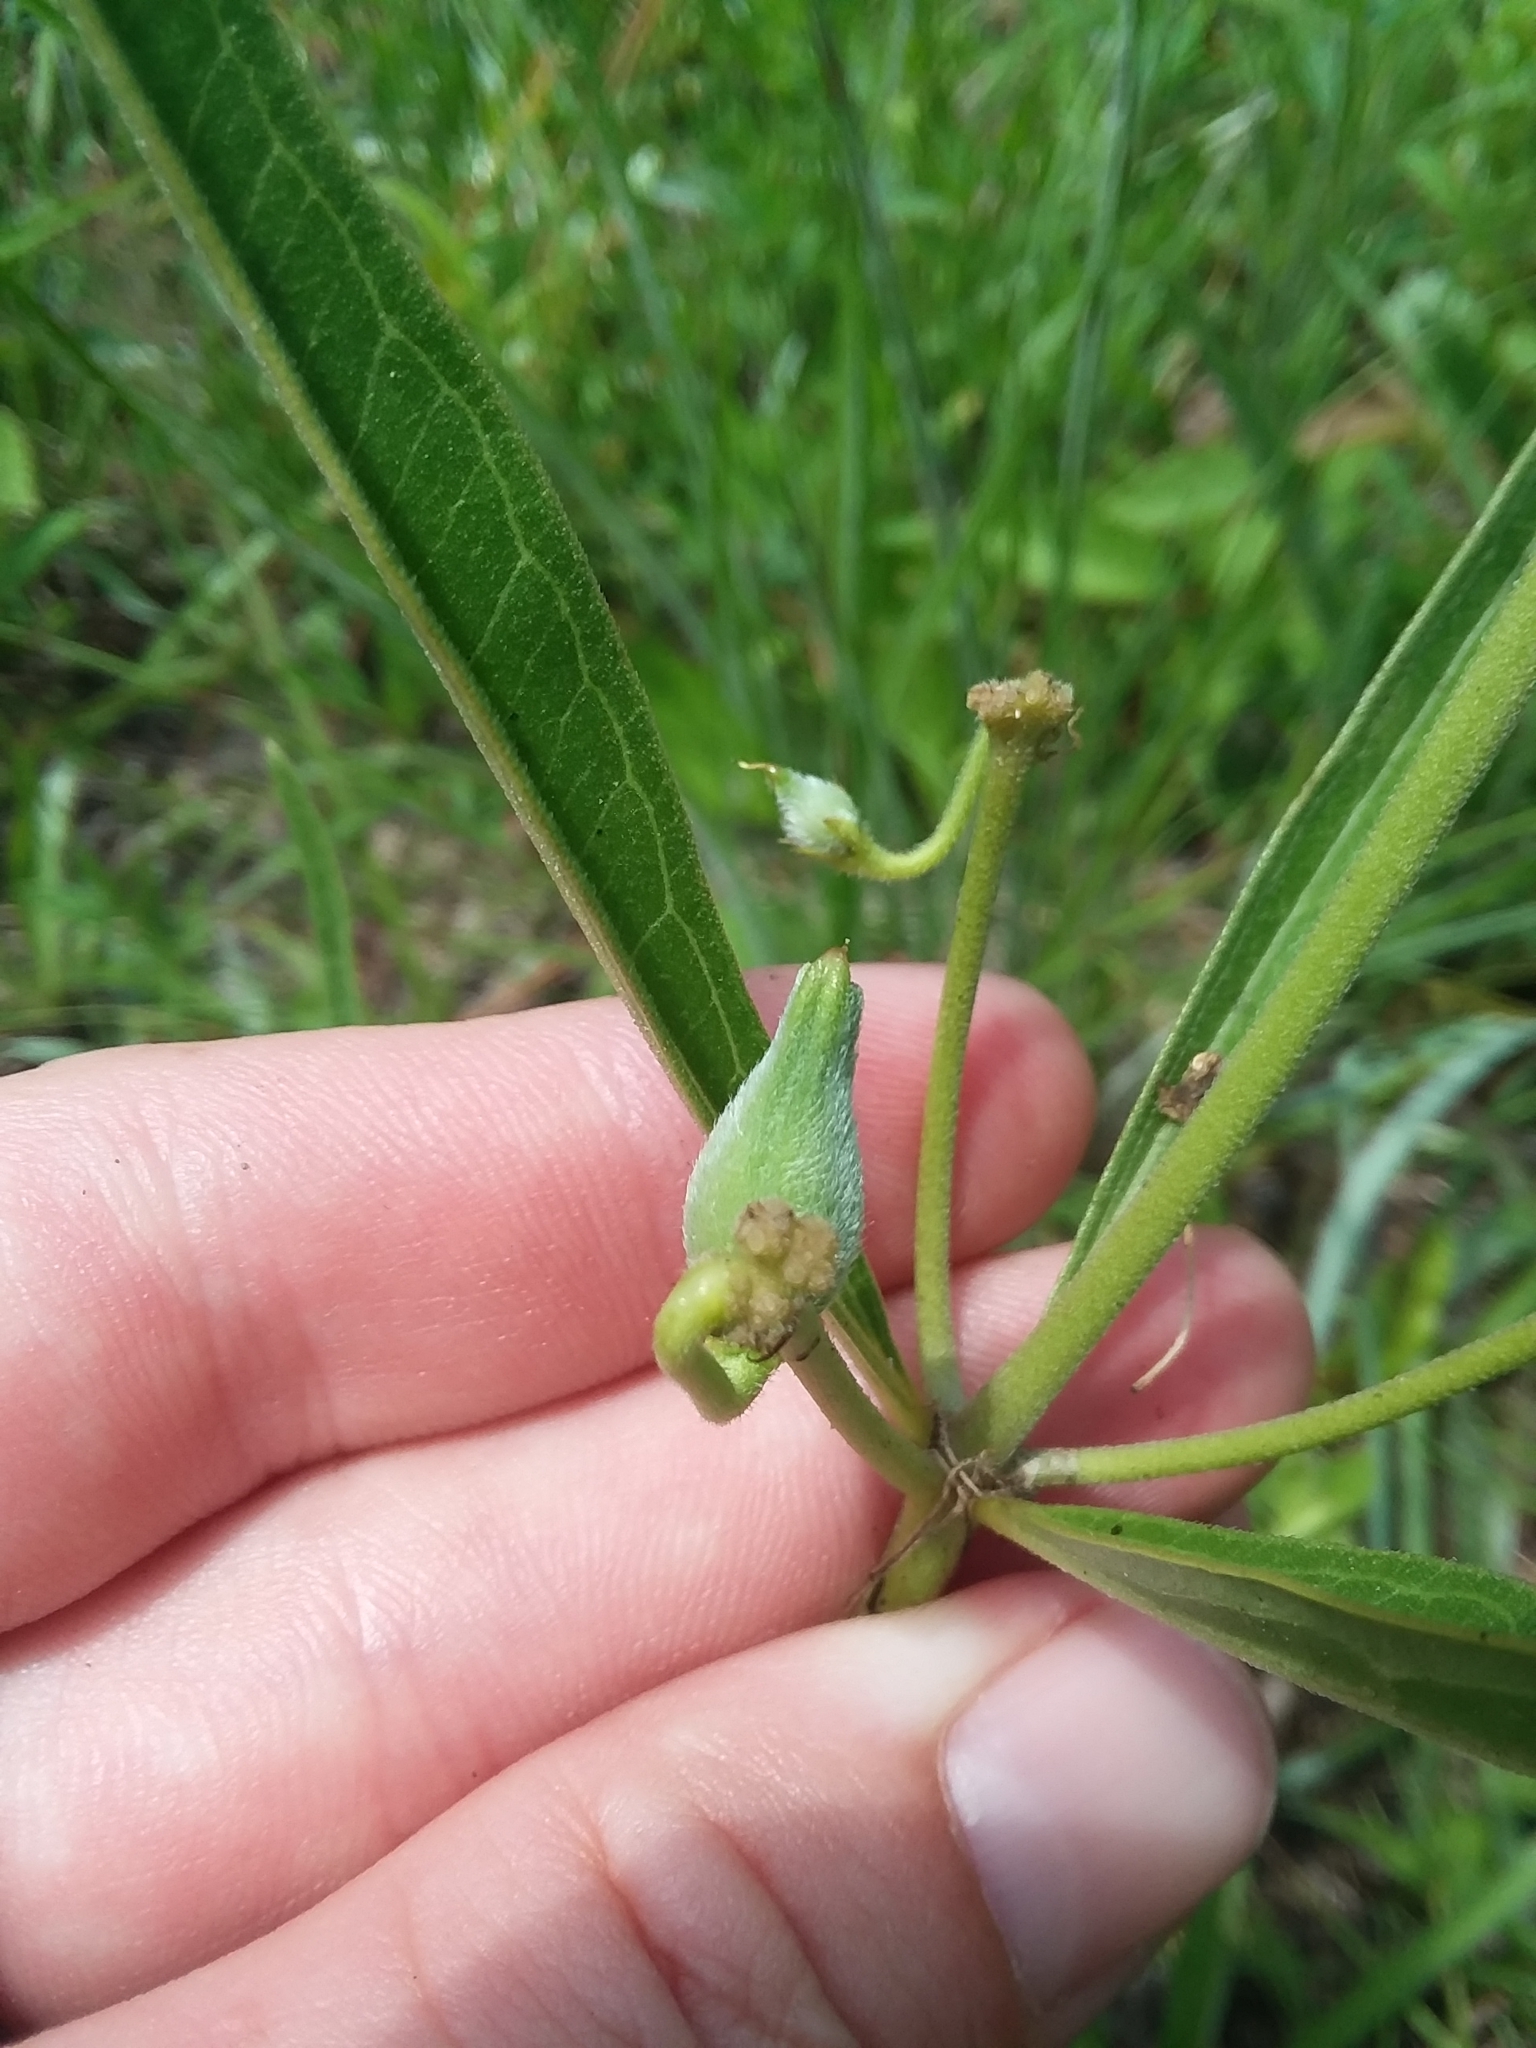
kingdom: Plantae
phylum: Tracheophyta
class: Magnoliopsida
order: Gentianales
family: Apocynaceae
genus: Asclepias
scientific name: Asclepias hirtella
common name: Prairie milkweed
